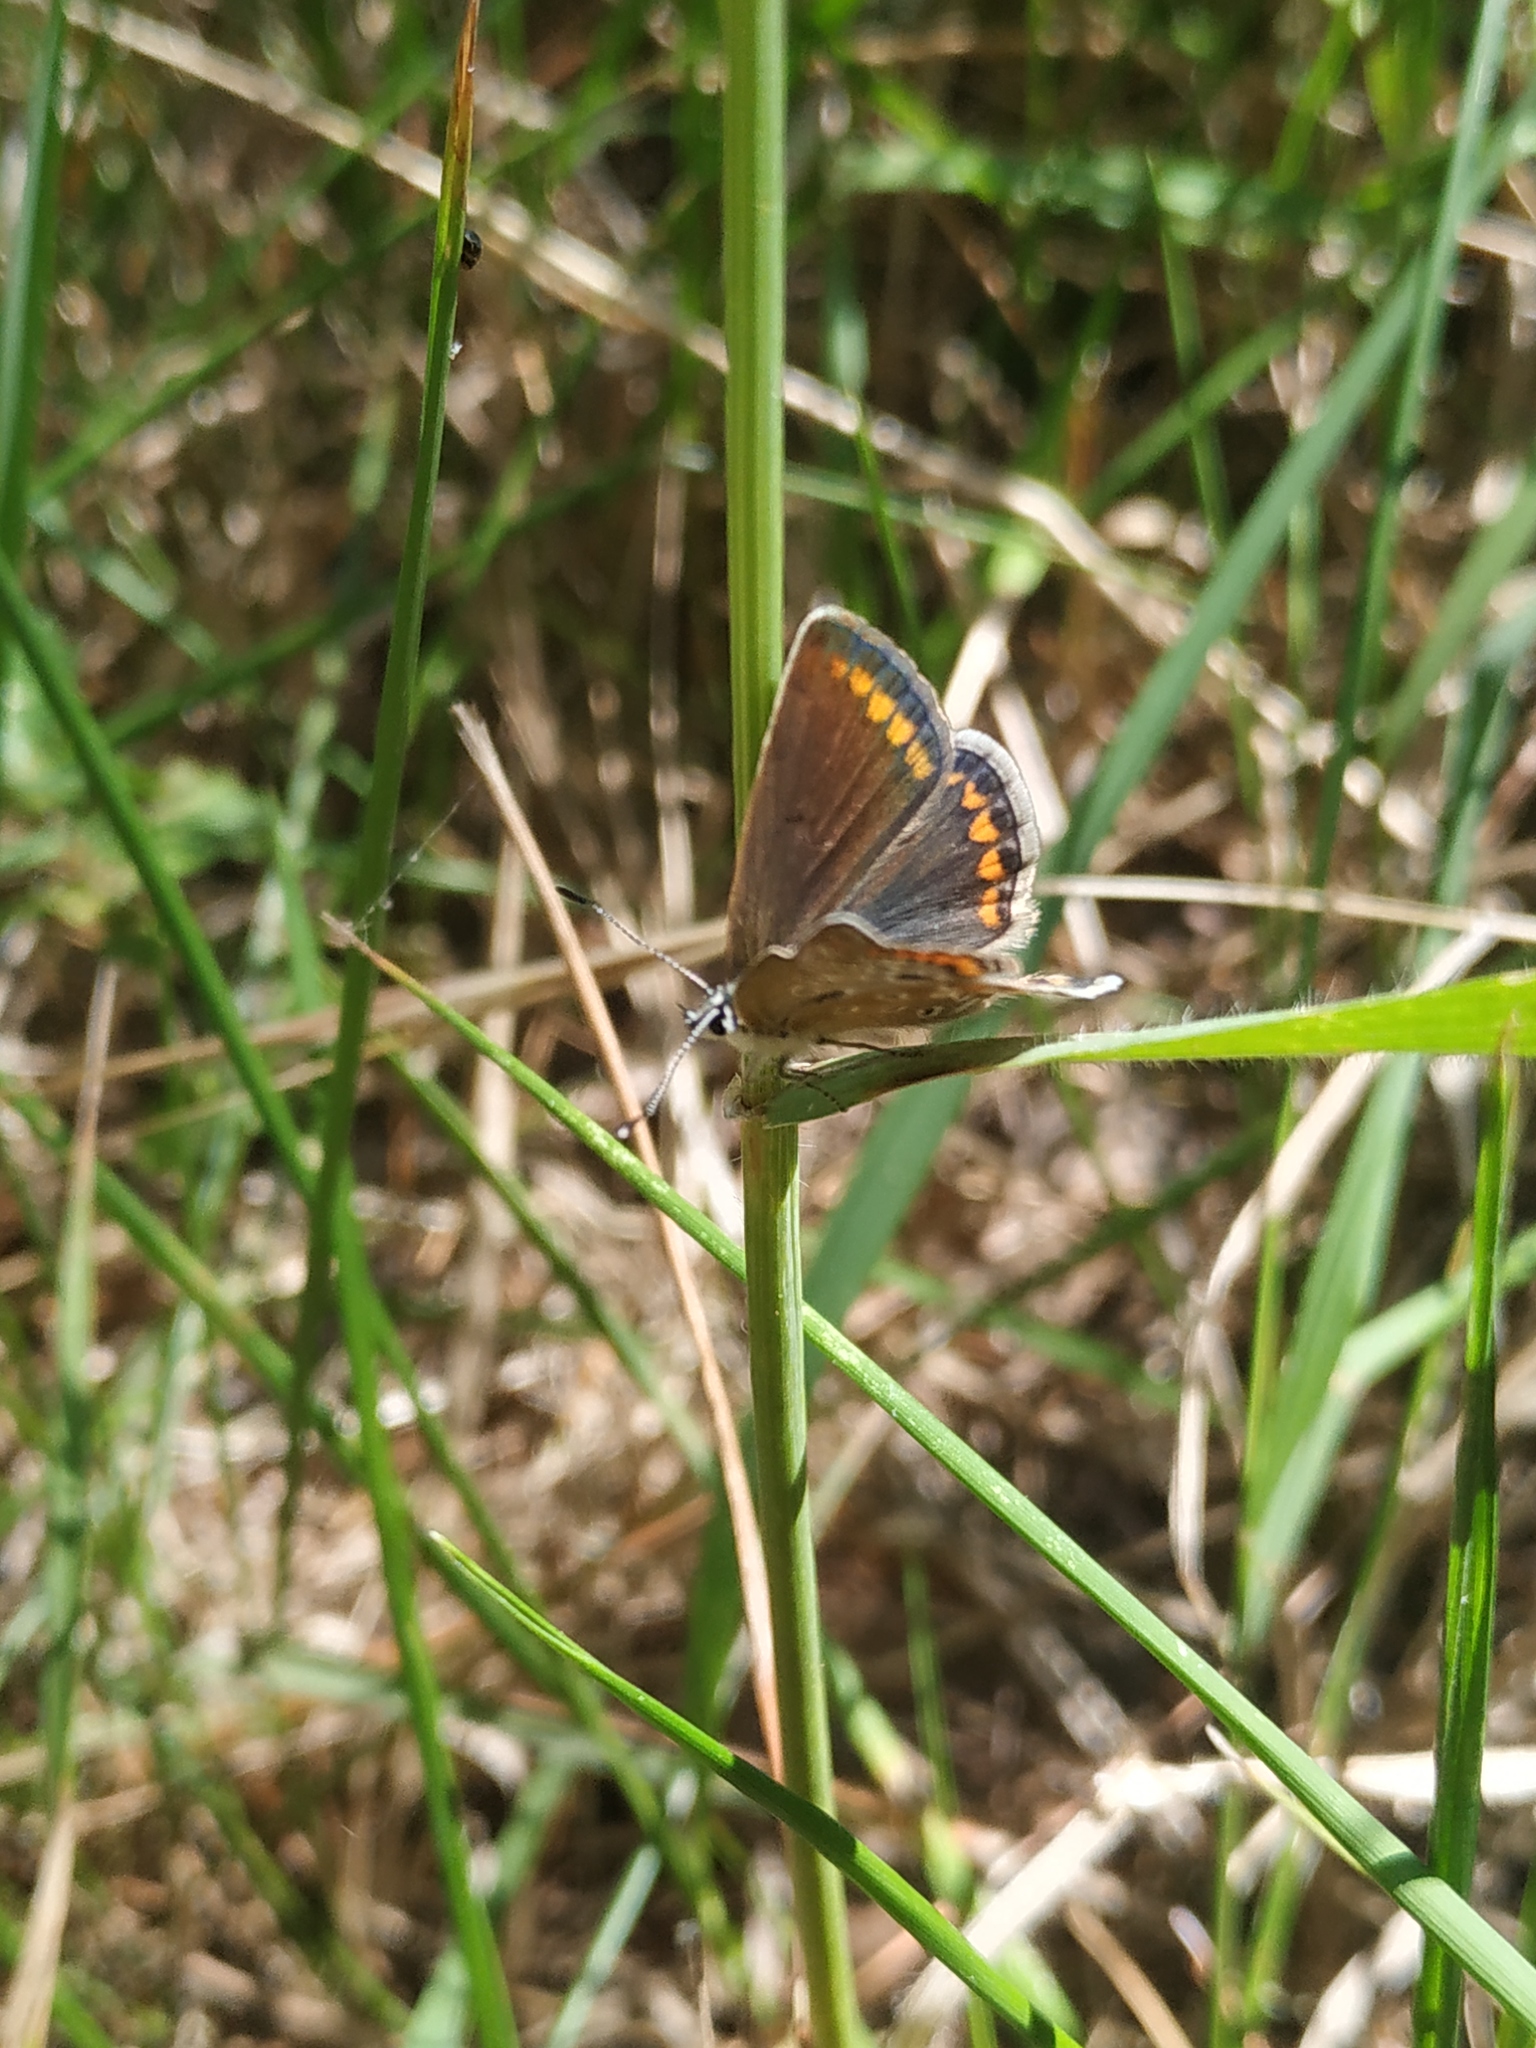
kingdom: Animalia
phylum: Arthropoda
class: Insecta
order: Lepidoptera
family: Lycaenidae
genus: Polyommatus
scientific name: Polyommatus icarus
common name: Common blue
